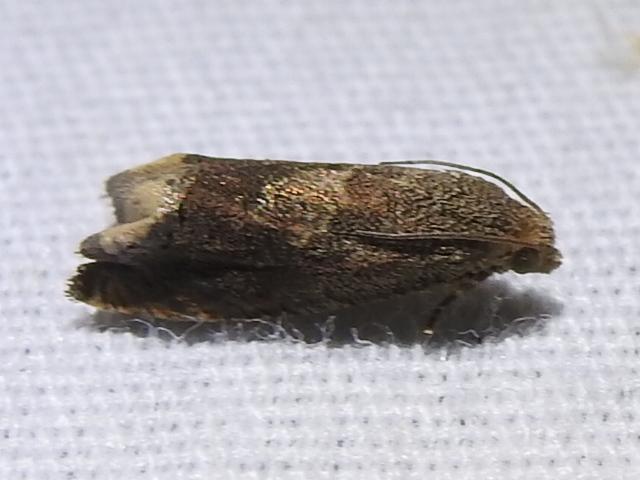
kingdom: Animalia
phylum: Arthropoda
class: Insecta
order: Lepidoptera
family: Tortricidae
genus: Epiblema
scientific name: Epiblema strenuana
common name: Ragweed borer moth
